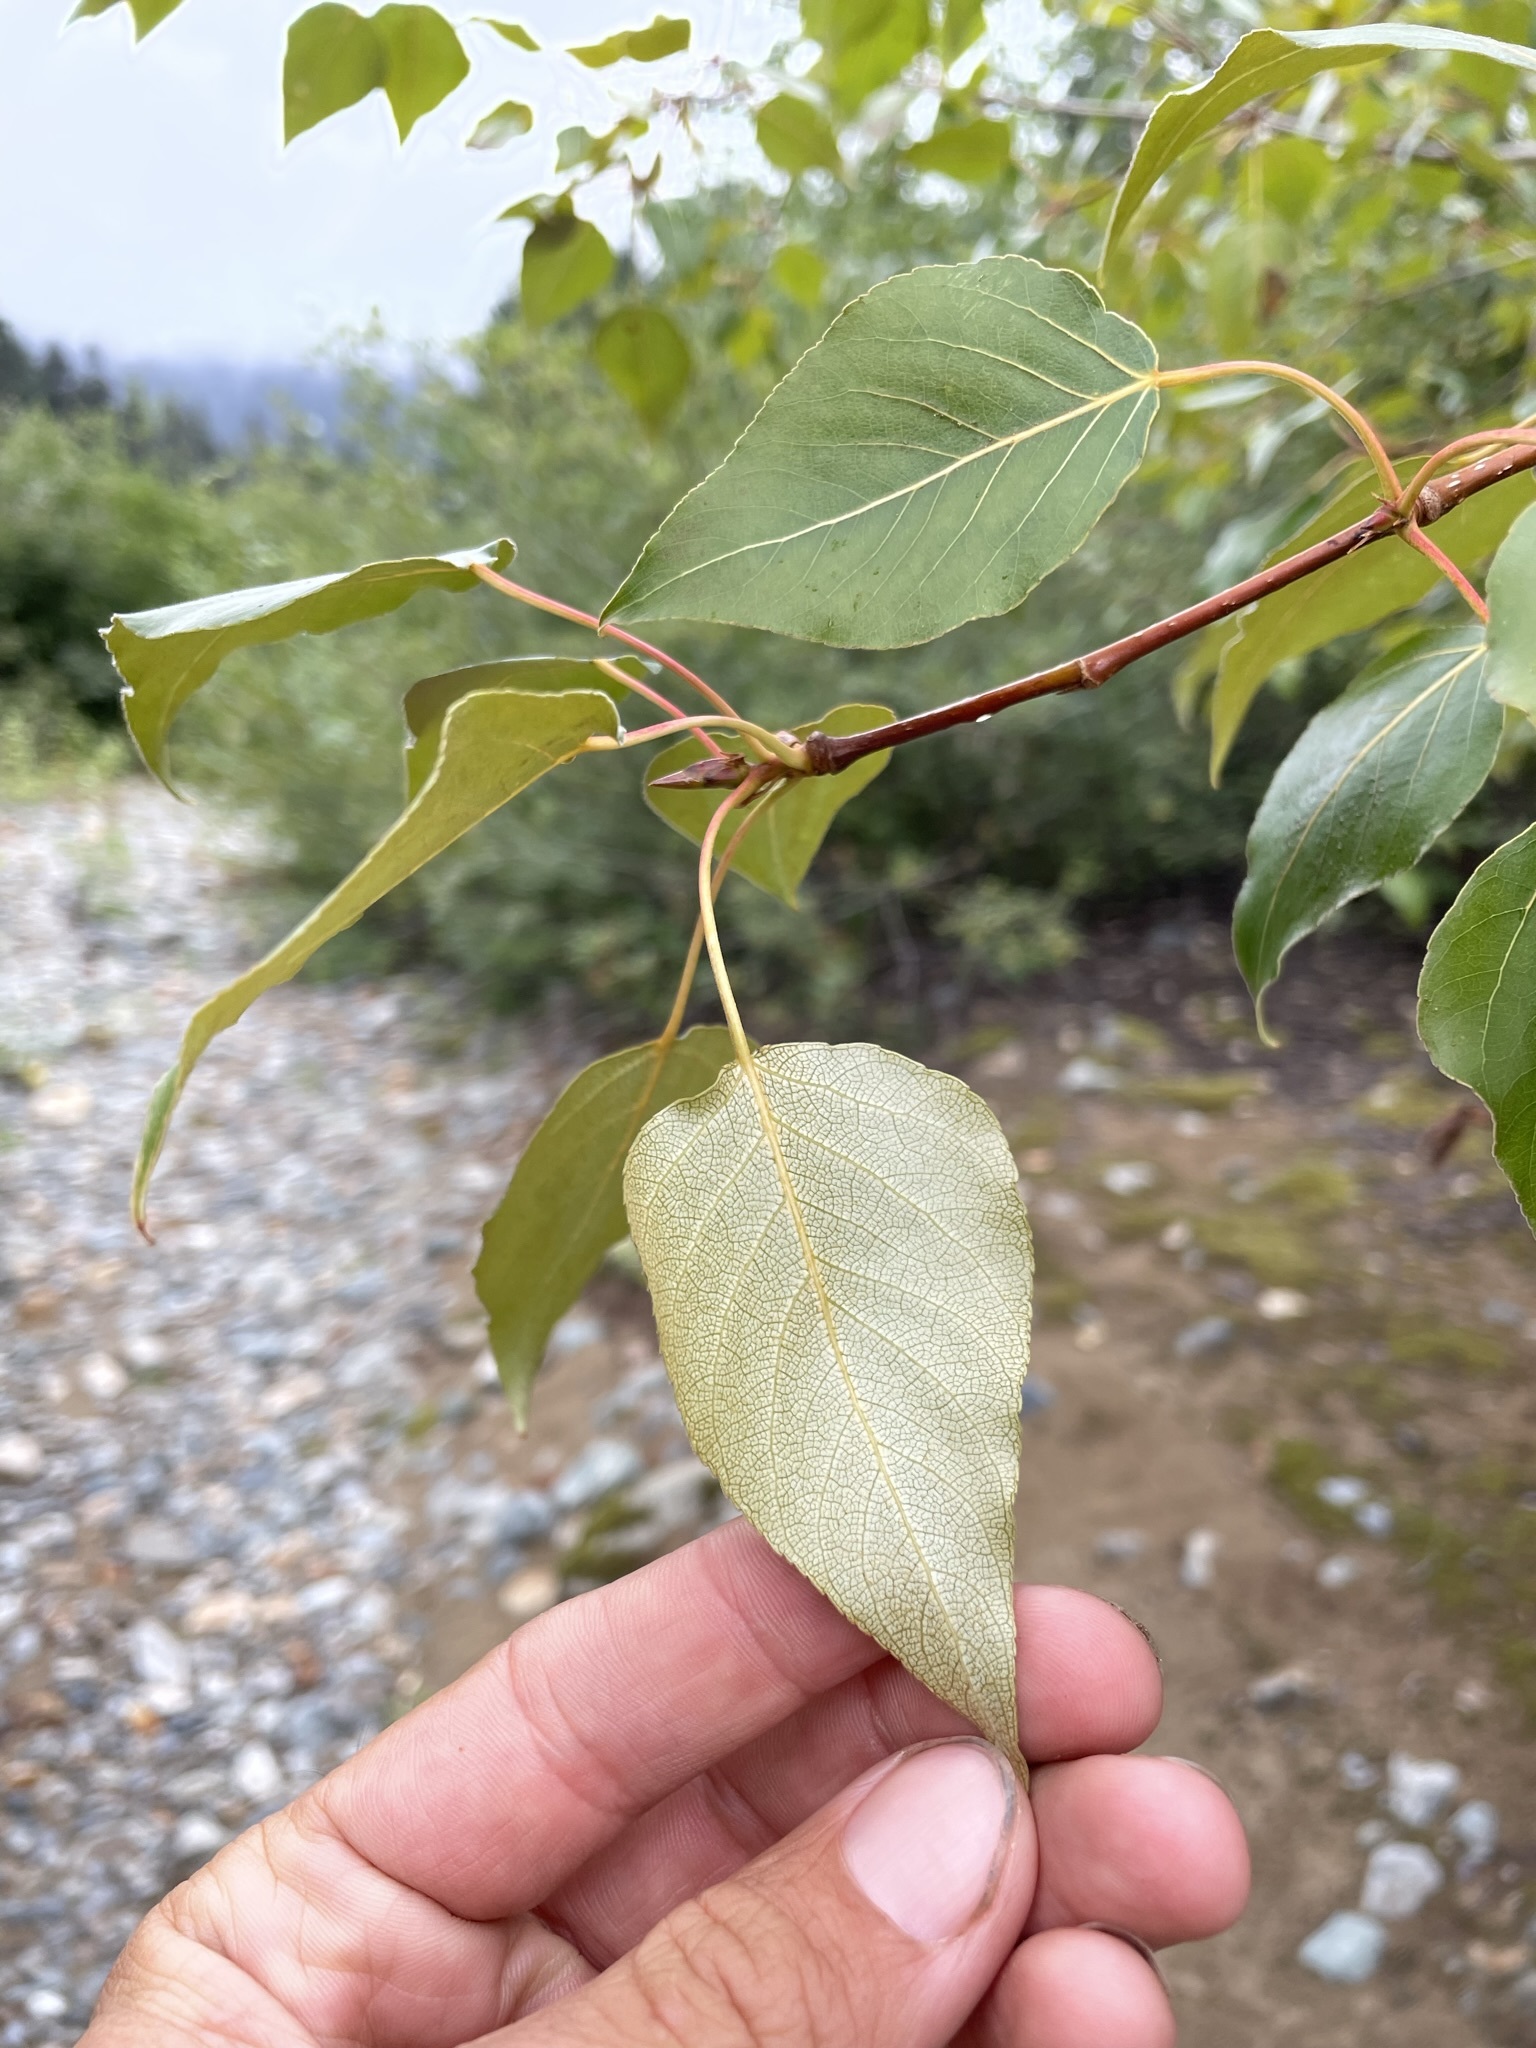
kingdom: Plantae
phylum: Tracheophyta
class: Magnoliopsida
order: Malpighiales
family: Salicaceae
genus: Populus
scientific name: Populus trichocarpa
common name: Black cottonwood
